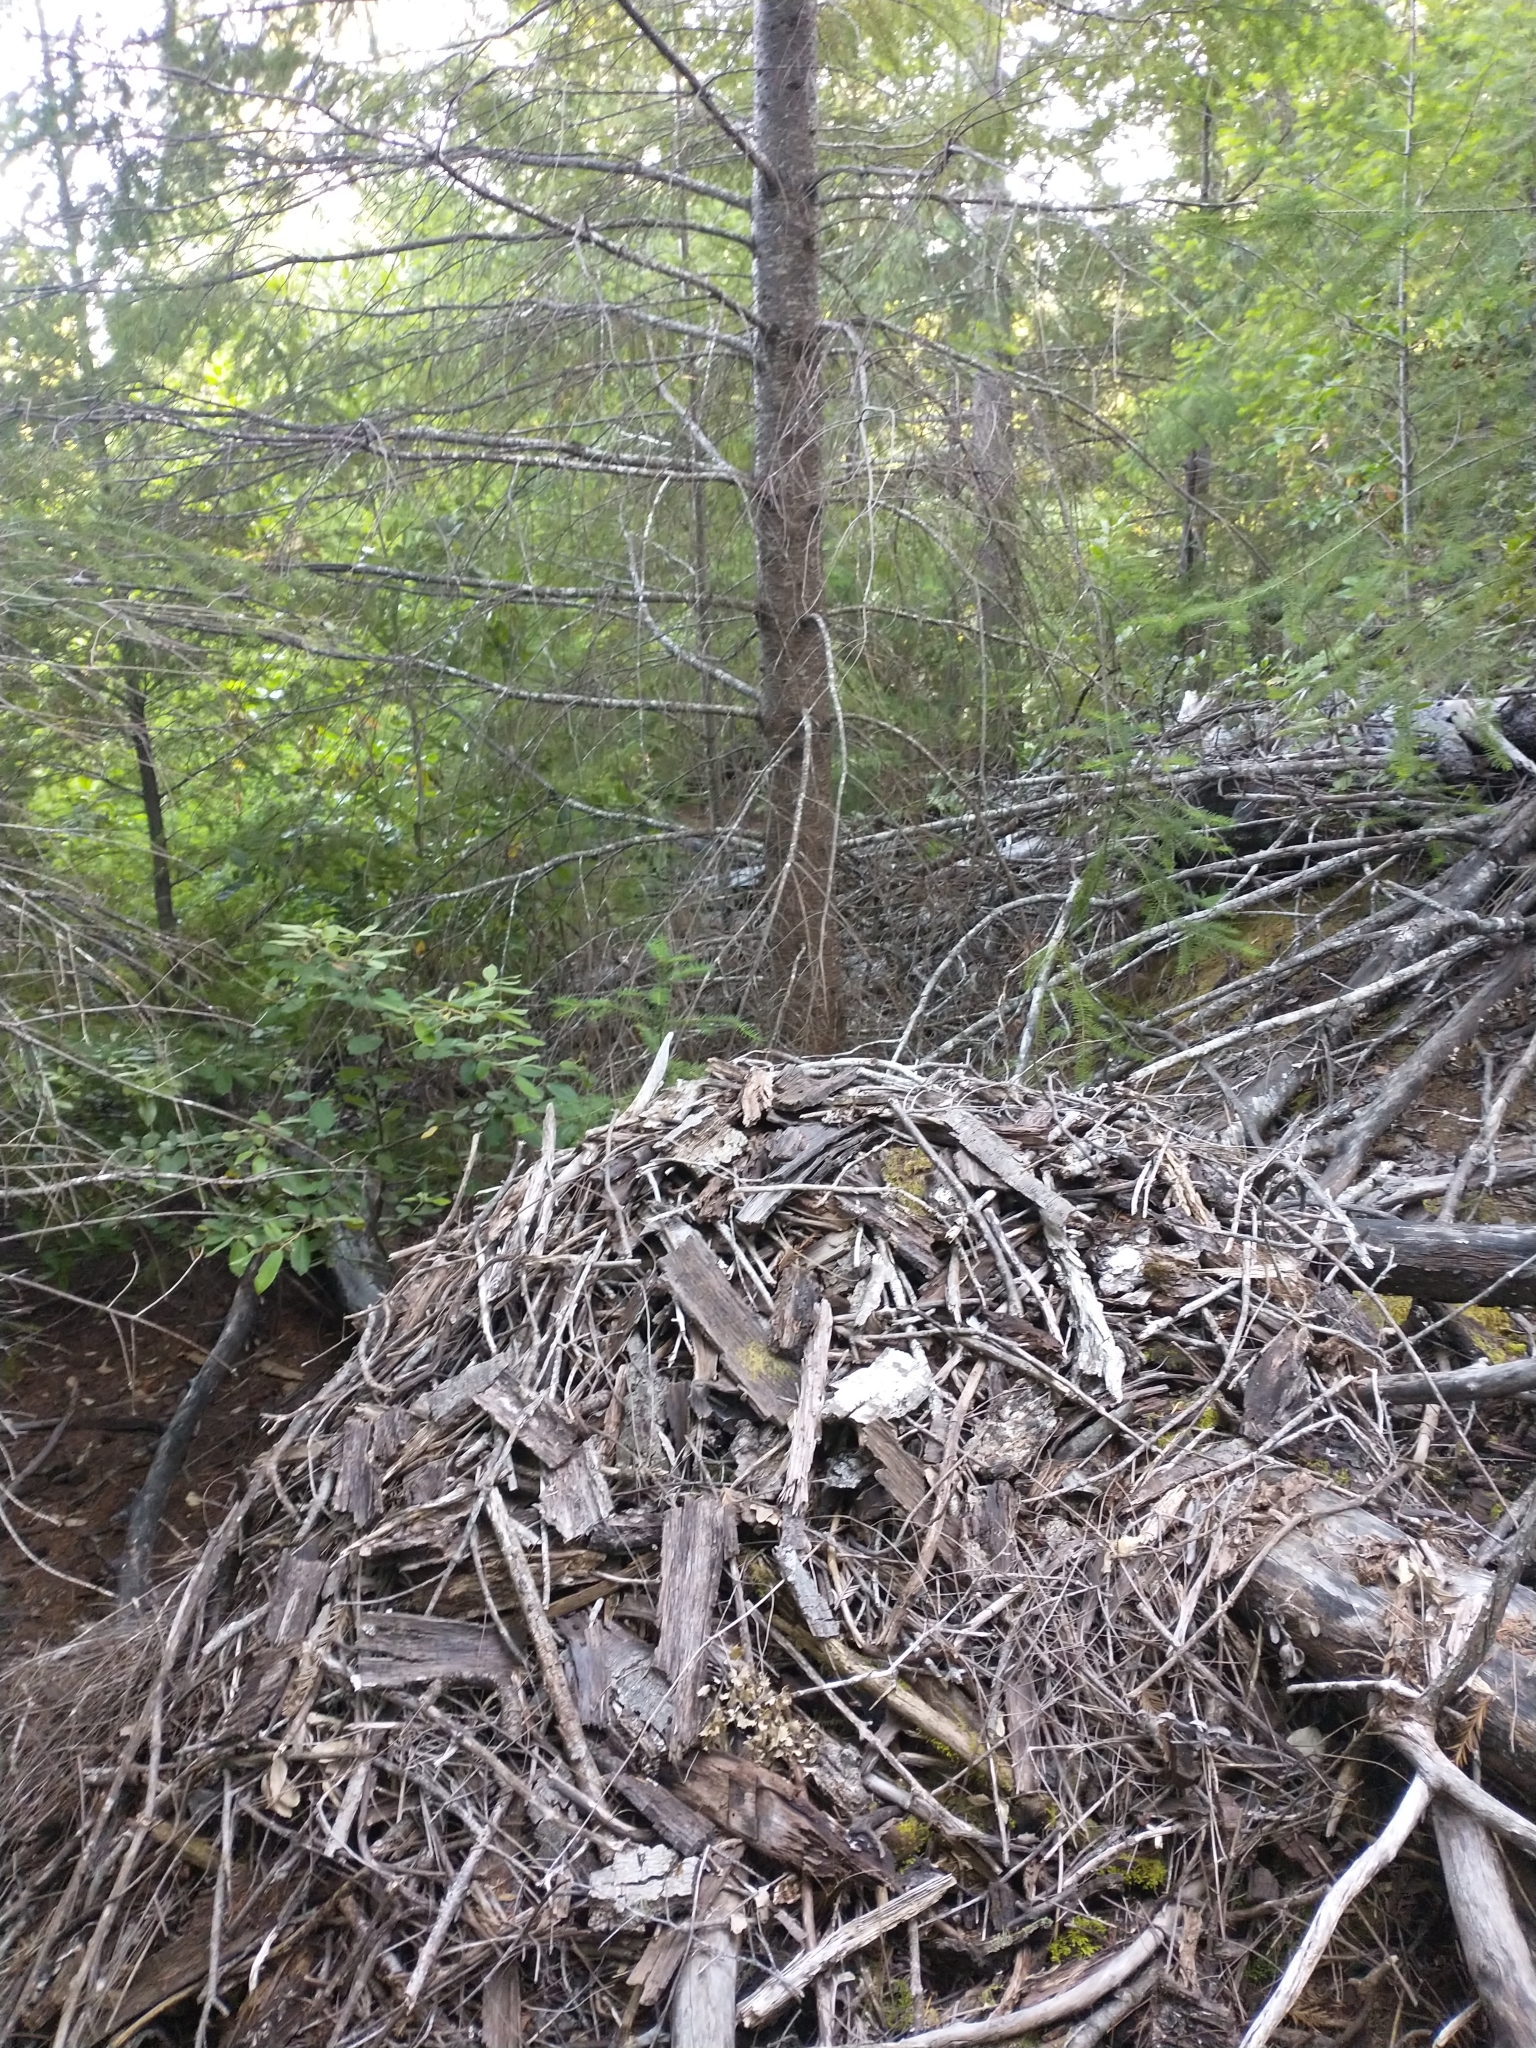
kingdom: Animalia
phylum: Chordata
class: Mammalia
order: Rodentia
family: Cricetidae
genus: Neotoma
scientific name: Neotoma fuscipes
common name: Dusky-footed woodrat
